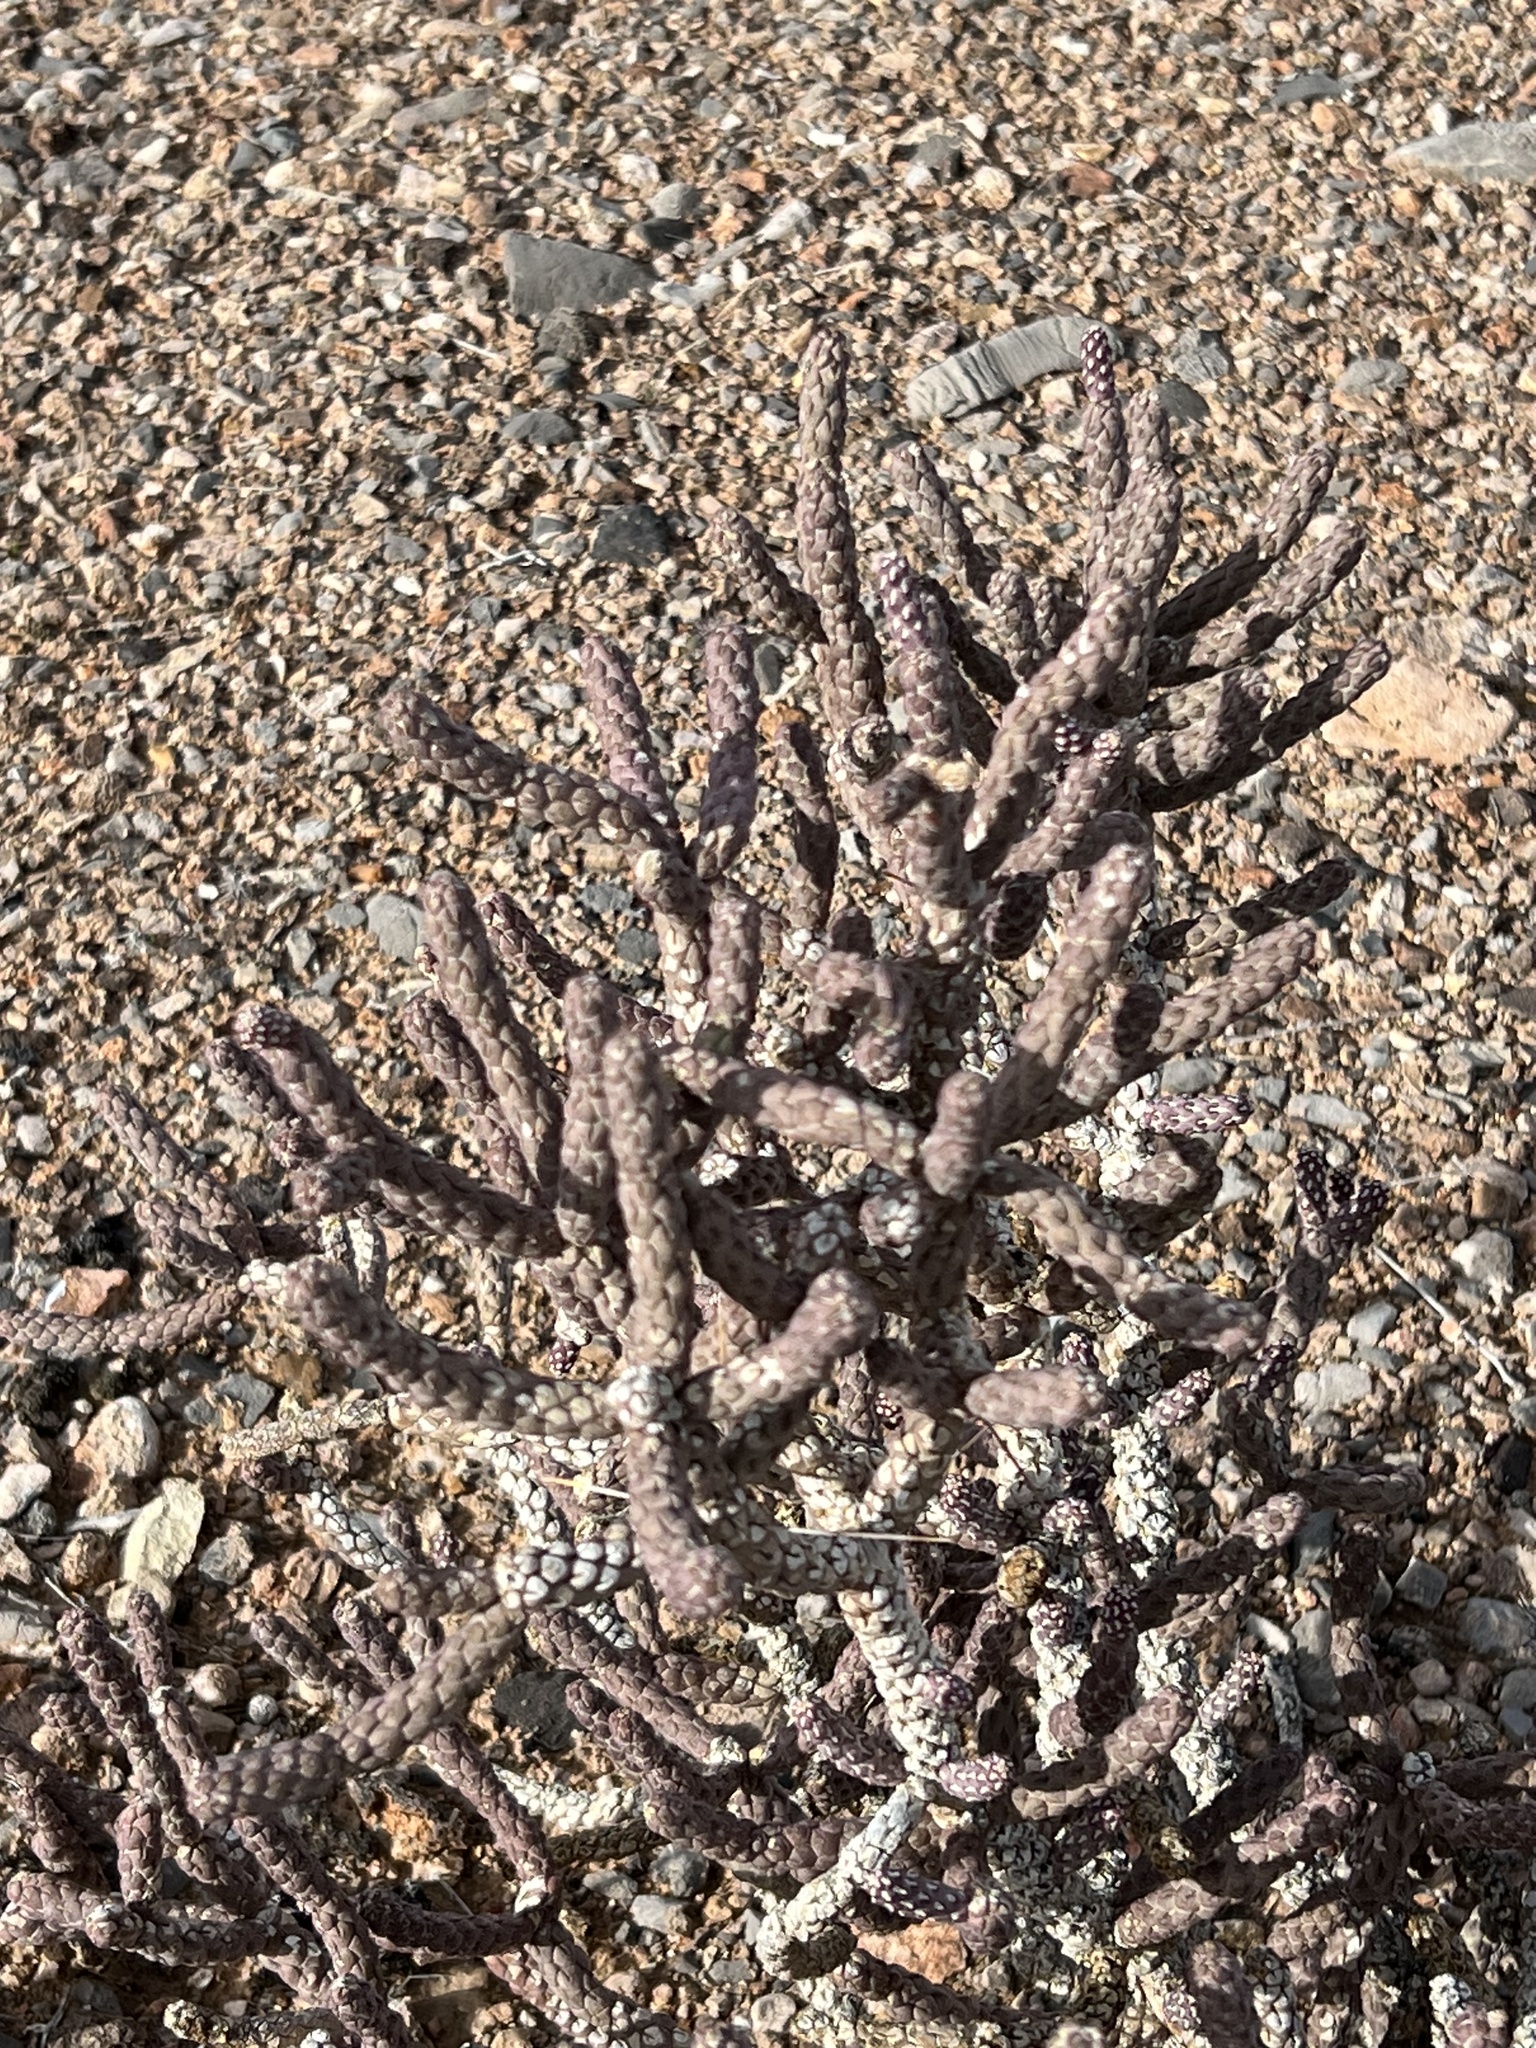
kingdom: Plantae
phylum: Tracheophyta
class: Magnoliopsida
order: Caryophyllales
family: Cactaceae
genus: Cylindropuntia
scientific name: Cylindropuntia ramosissima
